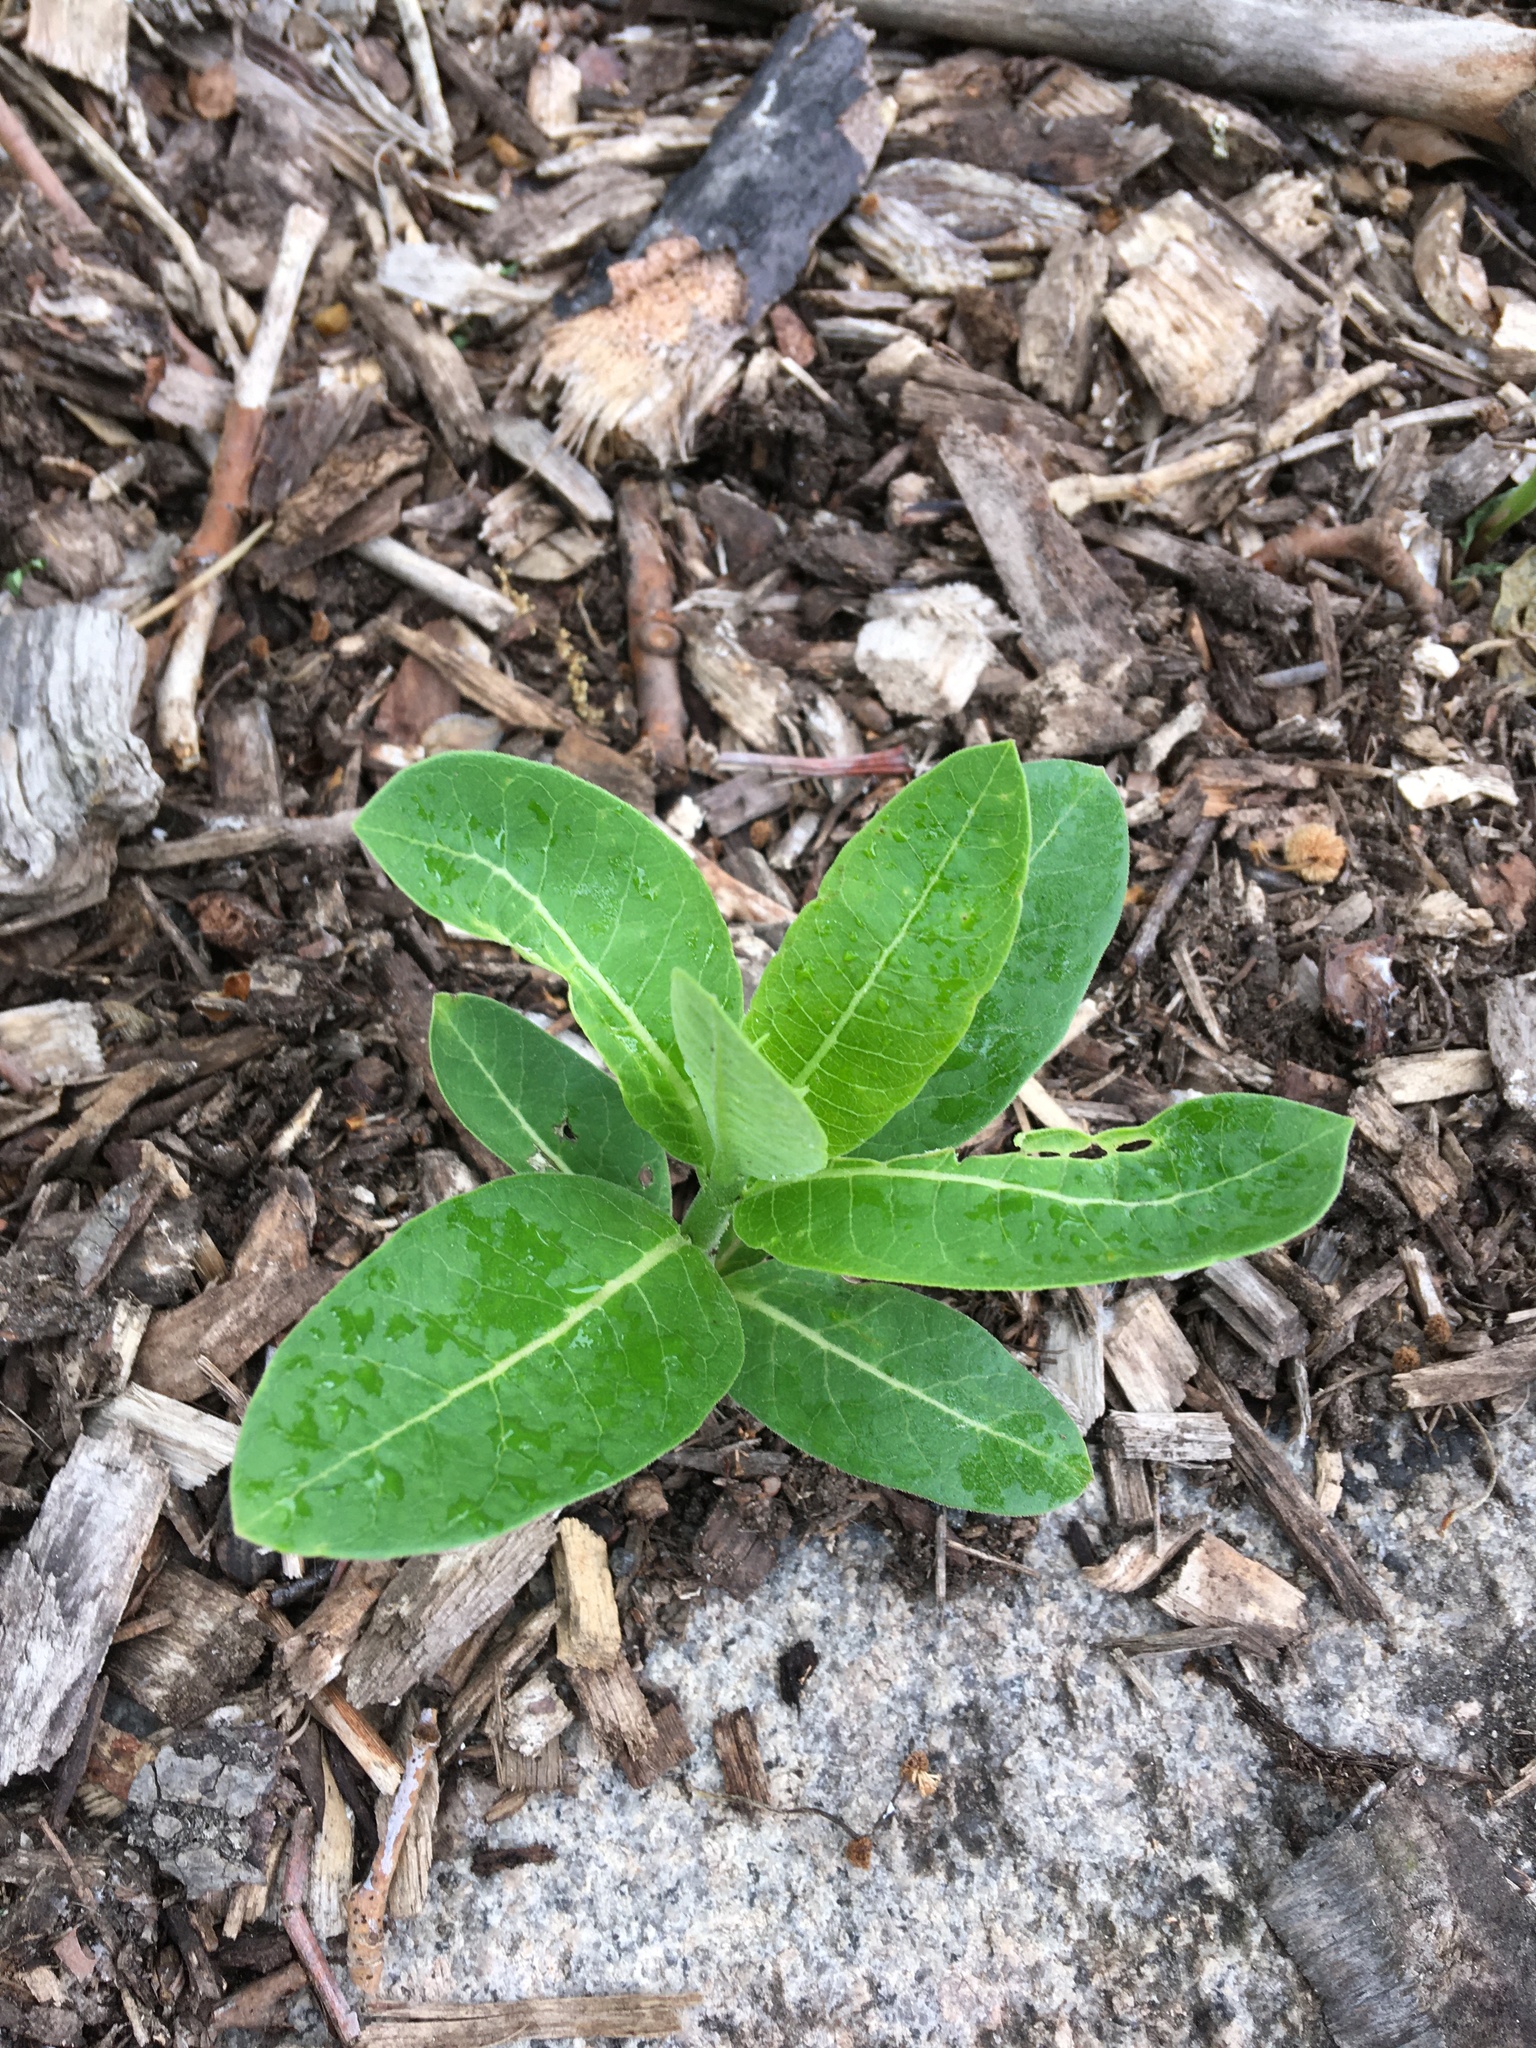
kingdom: Plantae
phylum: Tracheophyta
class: Magnoliopsida
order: Gentianales
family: Apocynaceae
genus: Asclepias
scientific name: Asclepias syriaca
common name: Common milkweed
